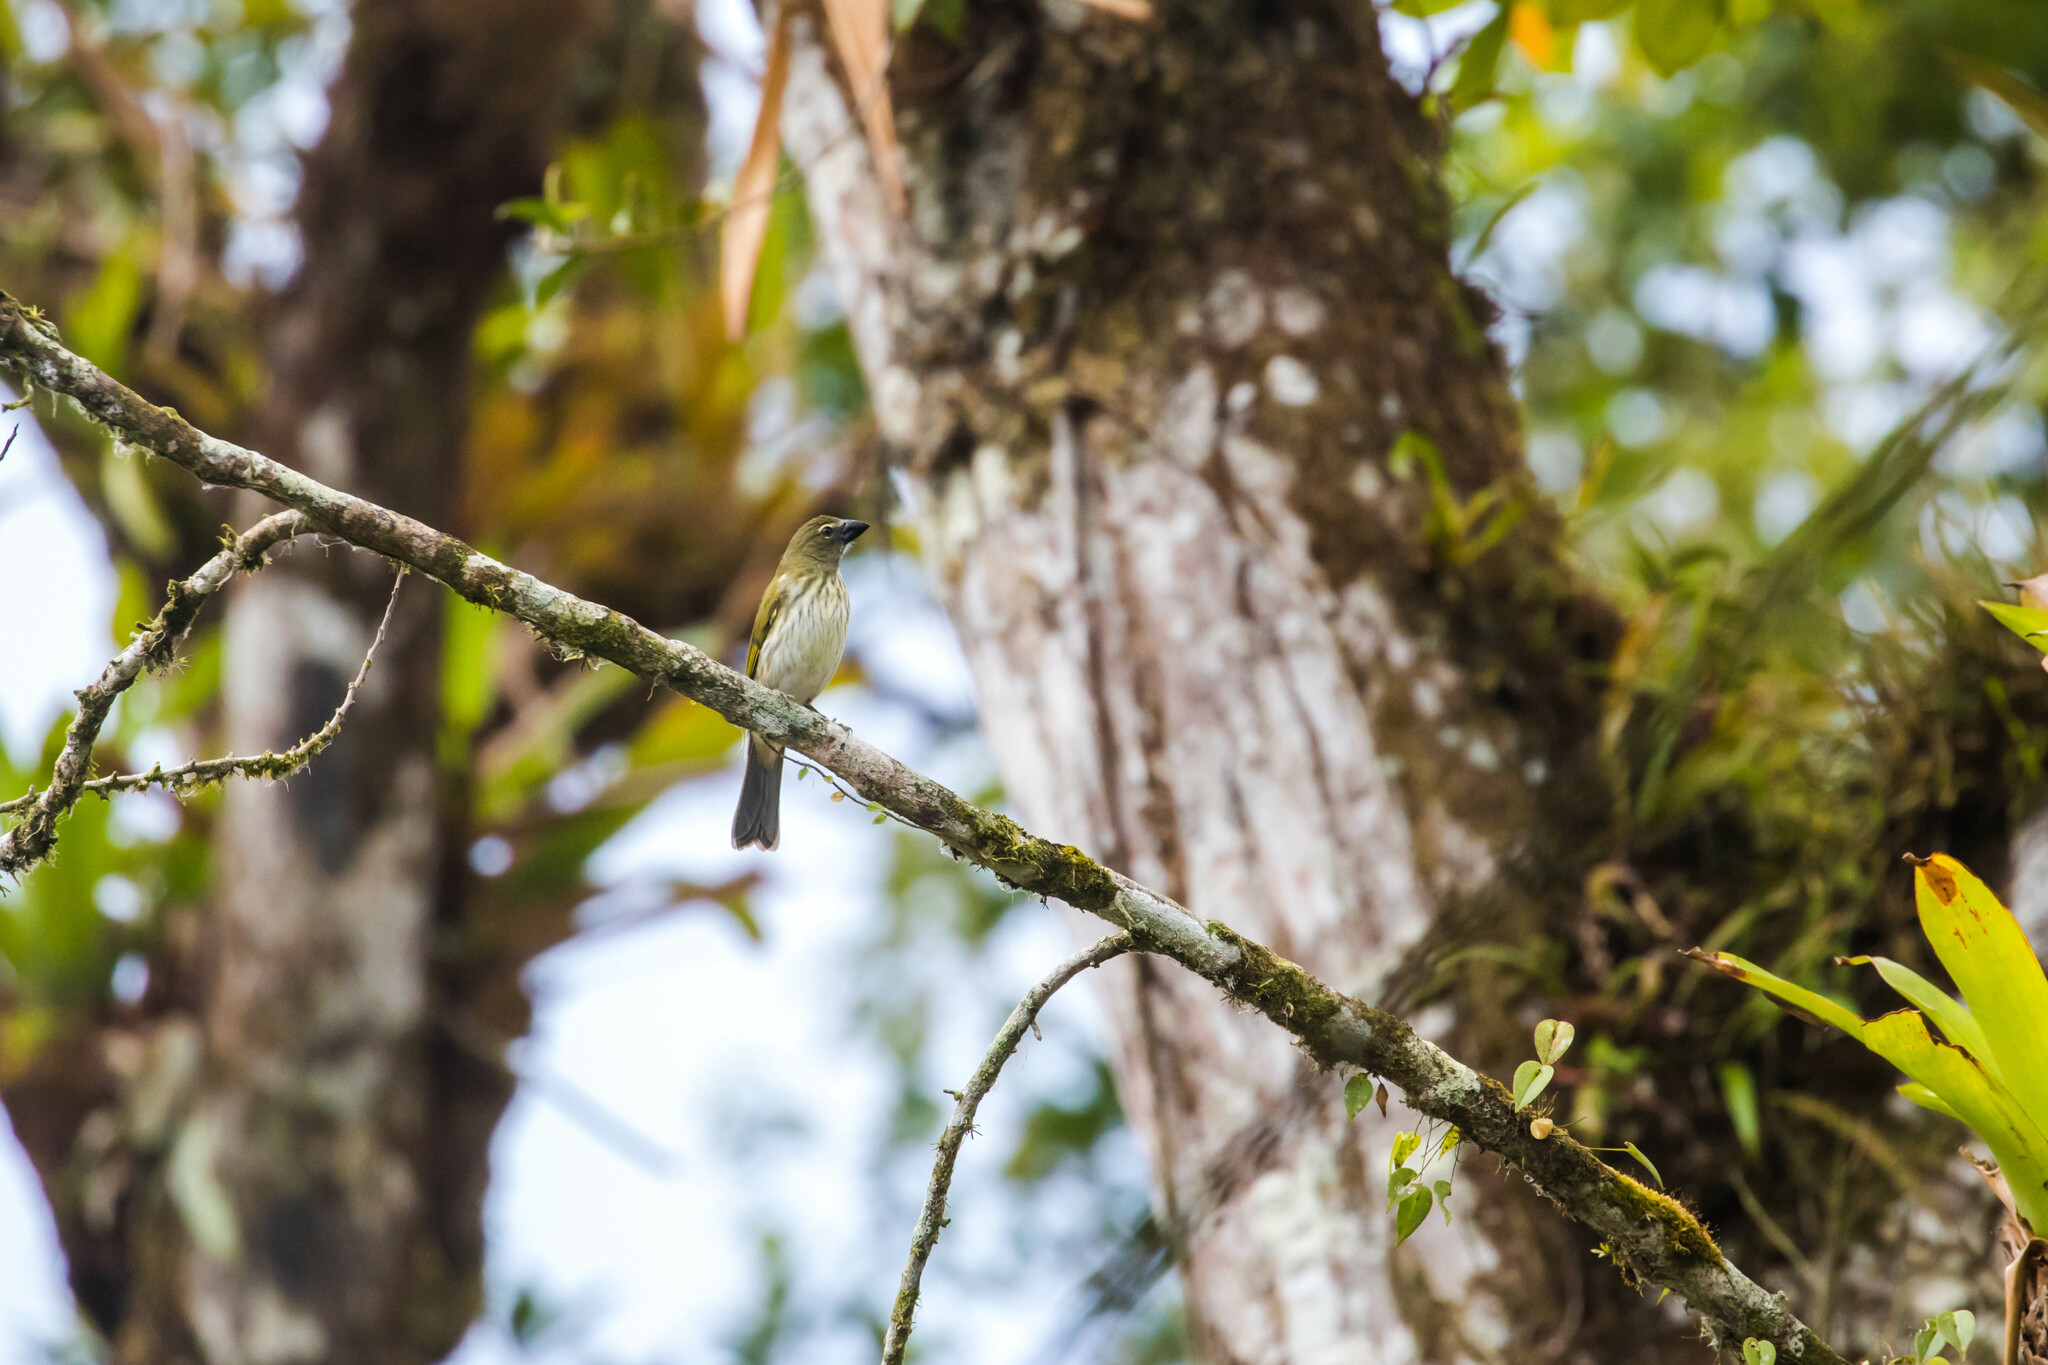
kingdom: Animalia
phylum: Chordata
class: Aves
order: Passeriformes
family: Thraupidae
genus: Saltator
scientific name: Saltator striatipectus
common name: Streaked saltator
